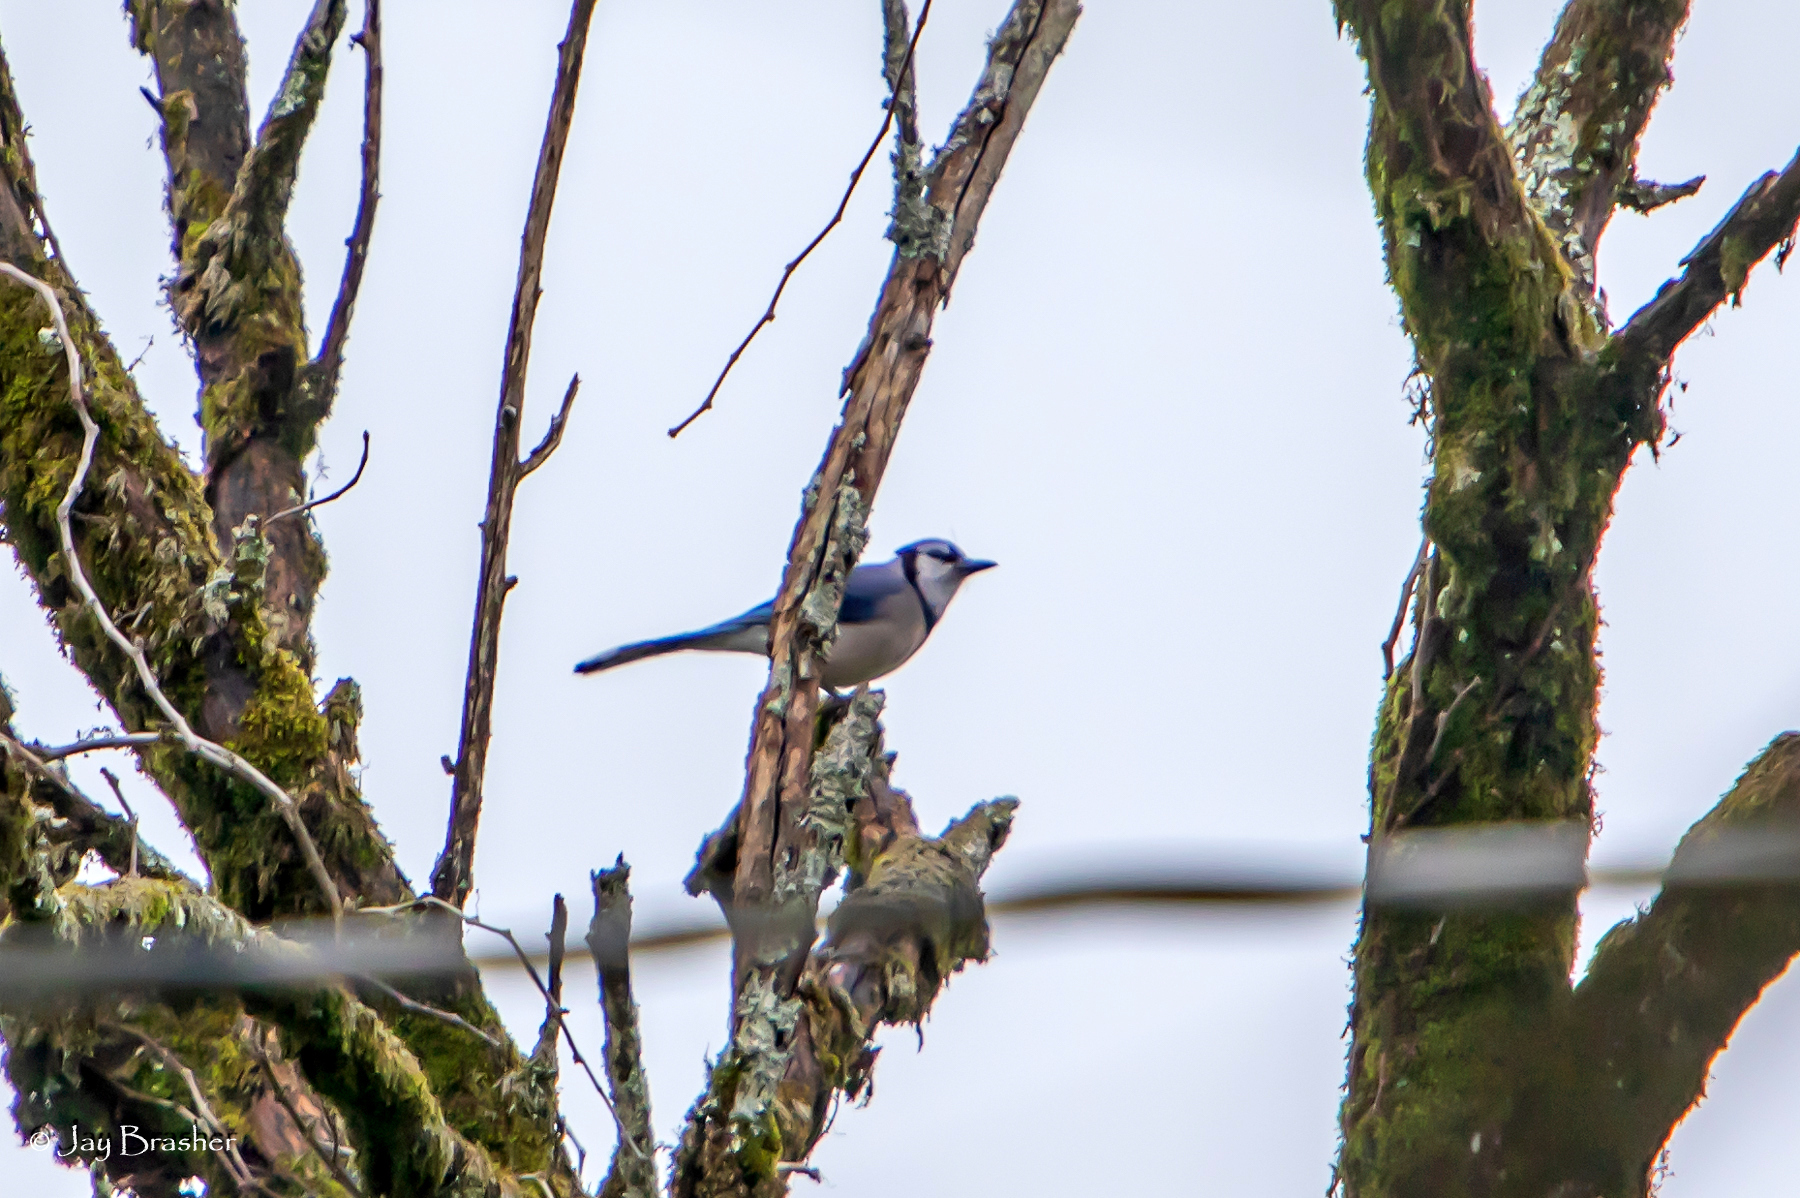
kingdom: Animalia
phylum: Chordata
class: Aves
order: Passeriformes
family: Corvidae
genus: Cyanocitta
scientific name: Cyanocitta cristata
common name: Blue jay
